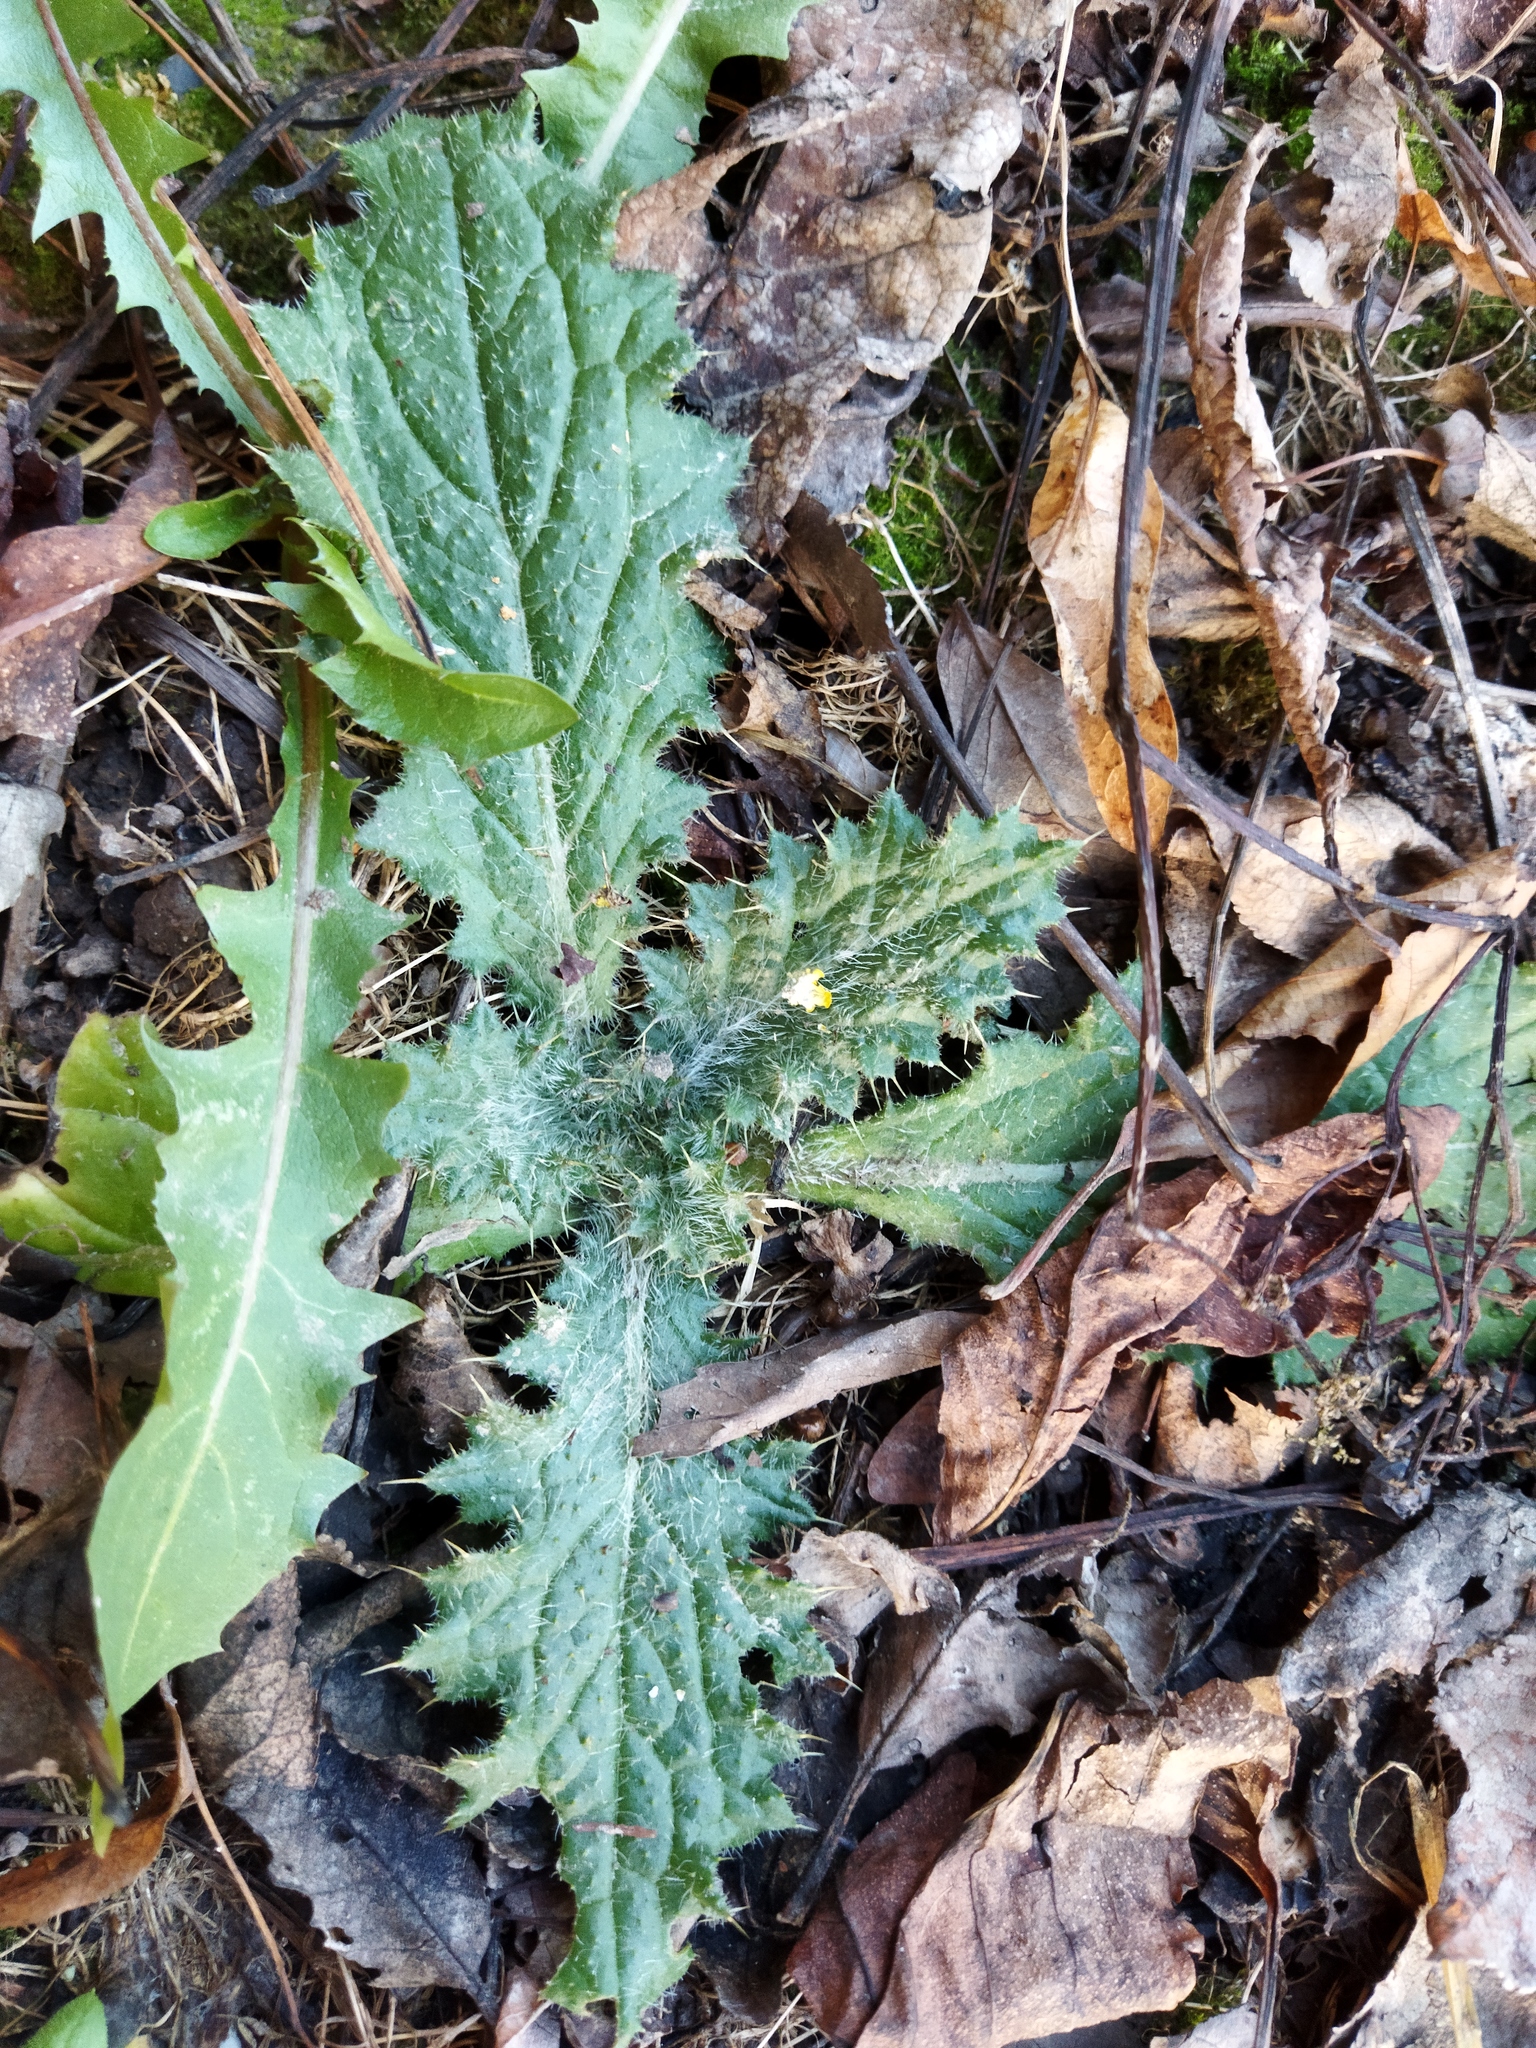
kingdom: Plantae
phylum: Tracheophyta
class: Magnoliopsida
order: Asterales
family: Asteraceae
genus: Cirsium
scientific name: Cirsium vulgare
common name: Bull thistle
